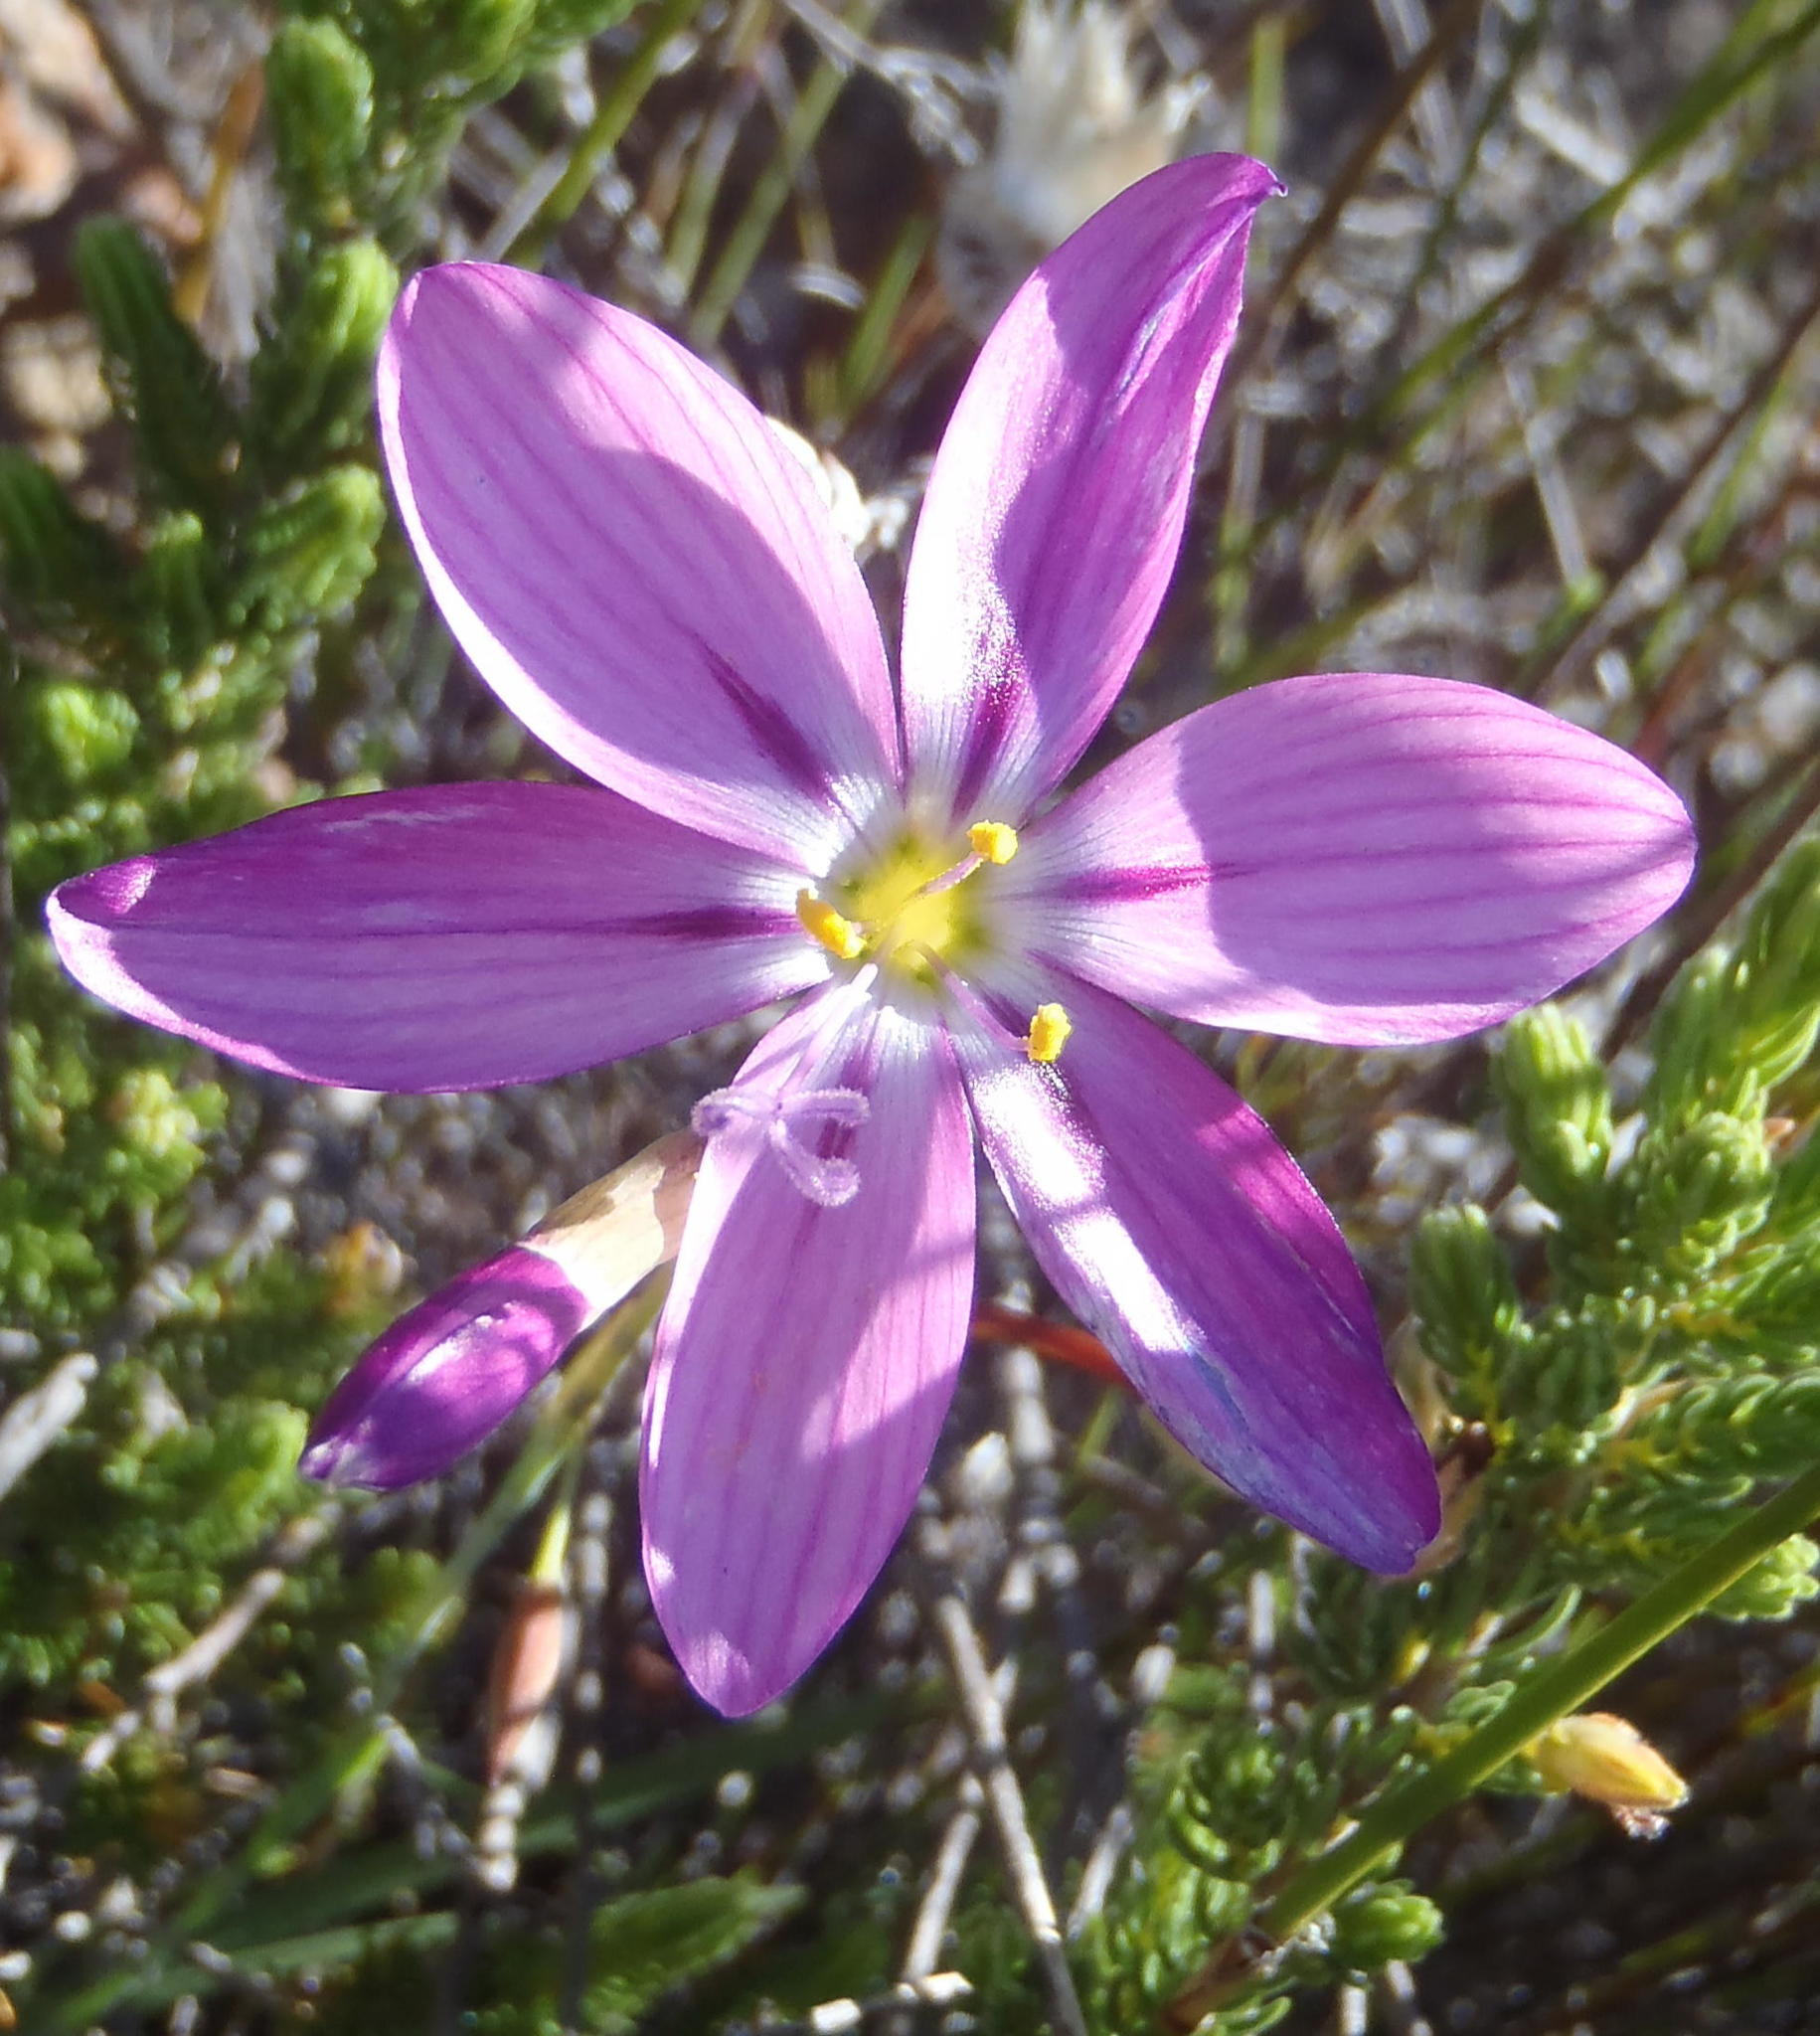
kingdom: Plantae
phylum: Tracheophyta
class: Liliopsida
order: Asparagales
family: Iridaceae
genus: Geissorhiza
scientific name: Geissorhiza elsiae
